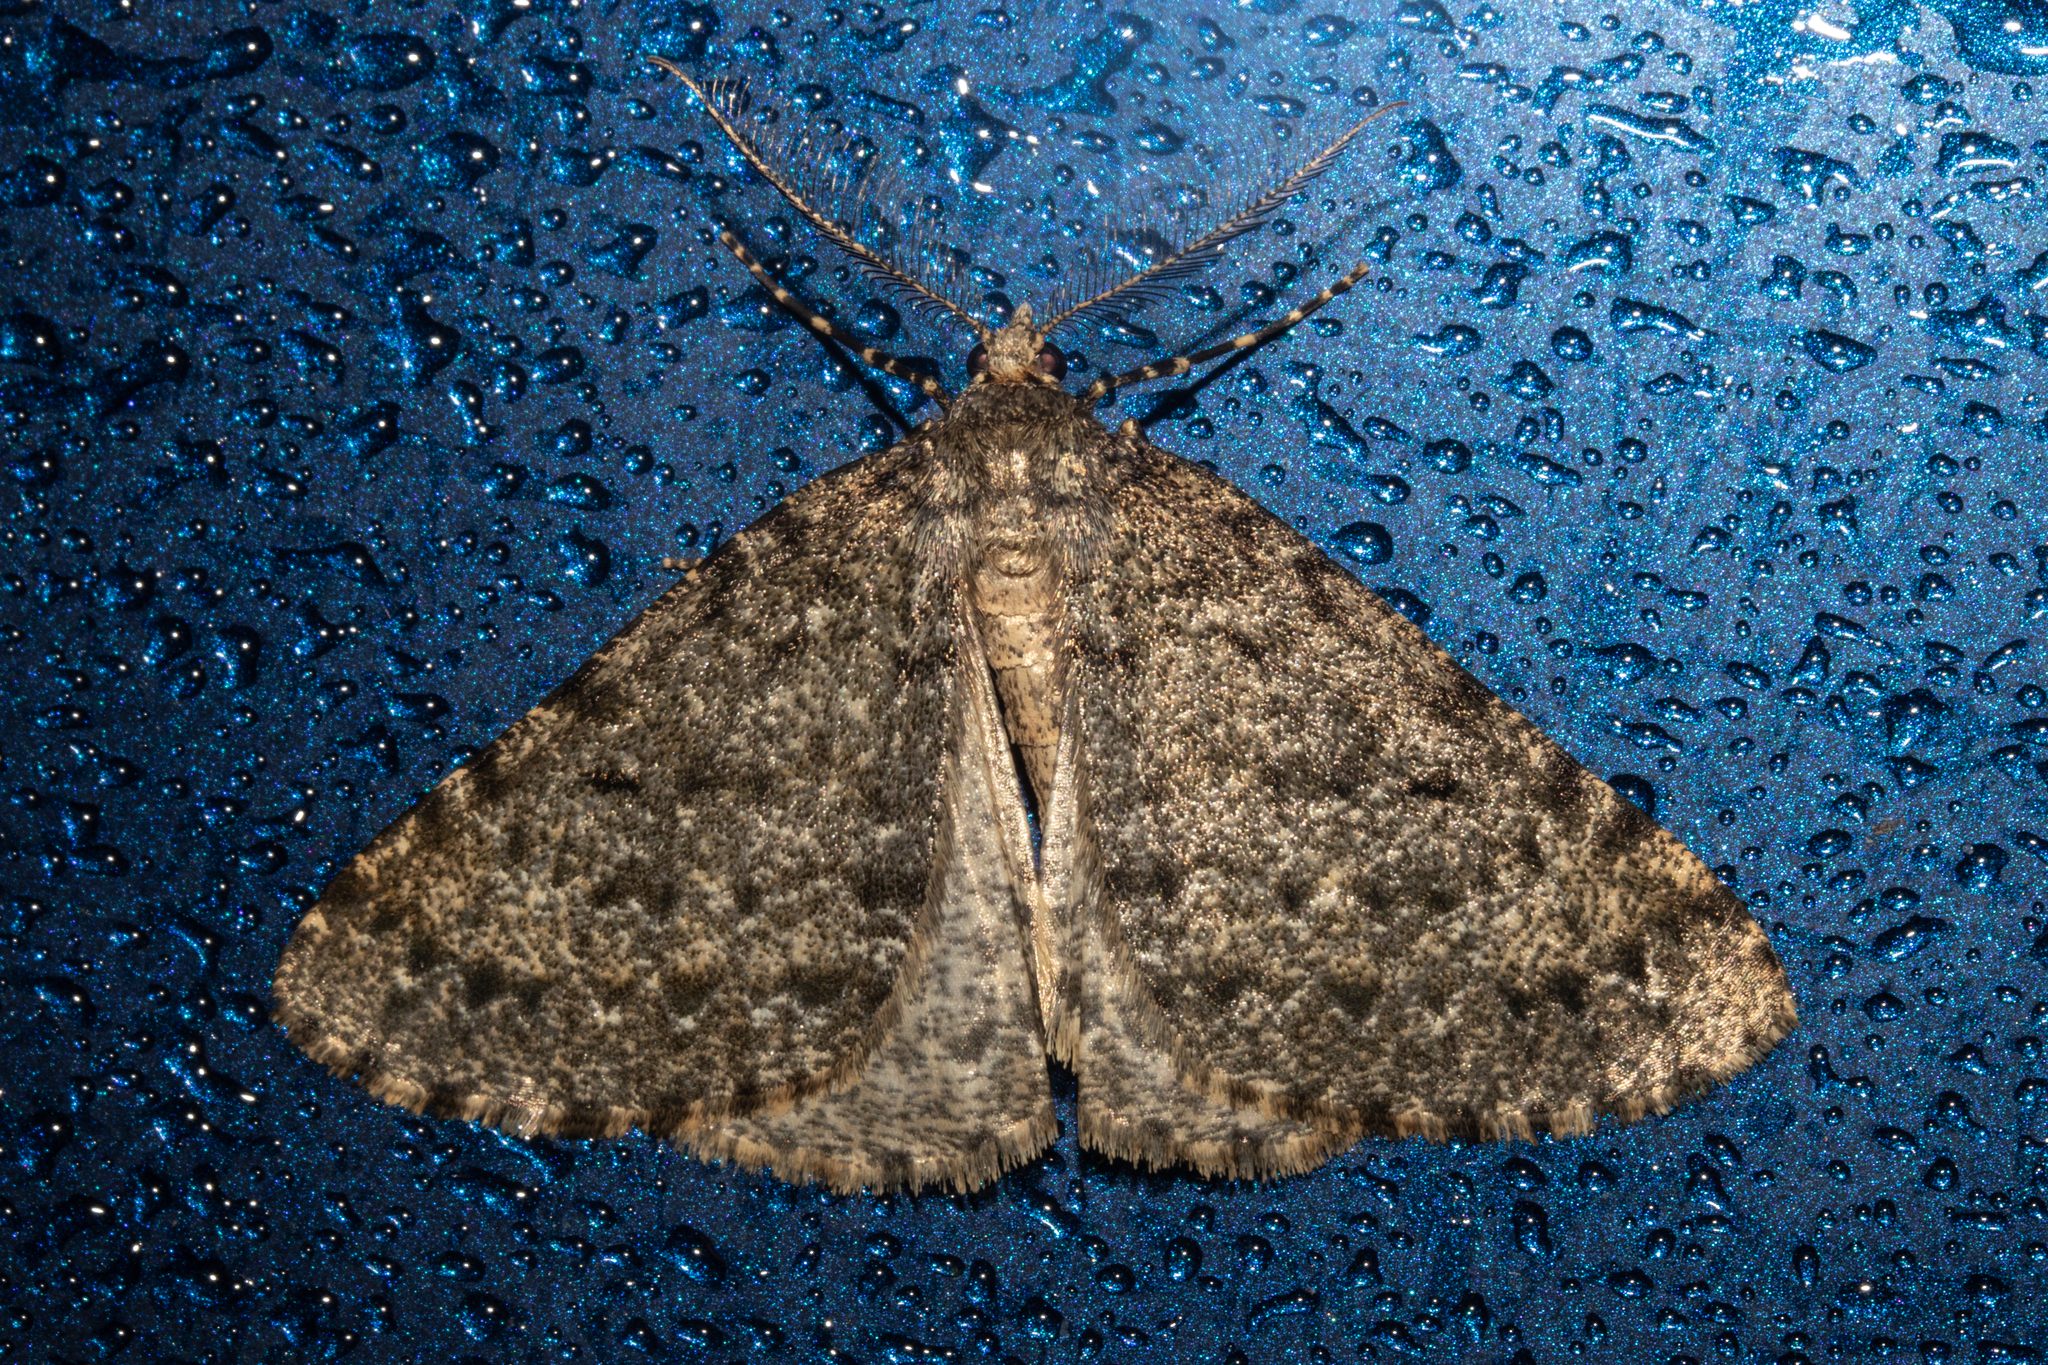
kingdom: Animalia
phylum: Arthropoda
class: Insecta
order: Lepidoptera
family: Geometridae
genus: Pseudocoremia
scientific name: Pseudocoremia terrena
